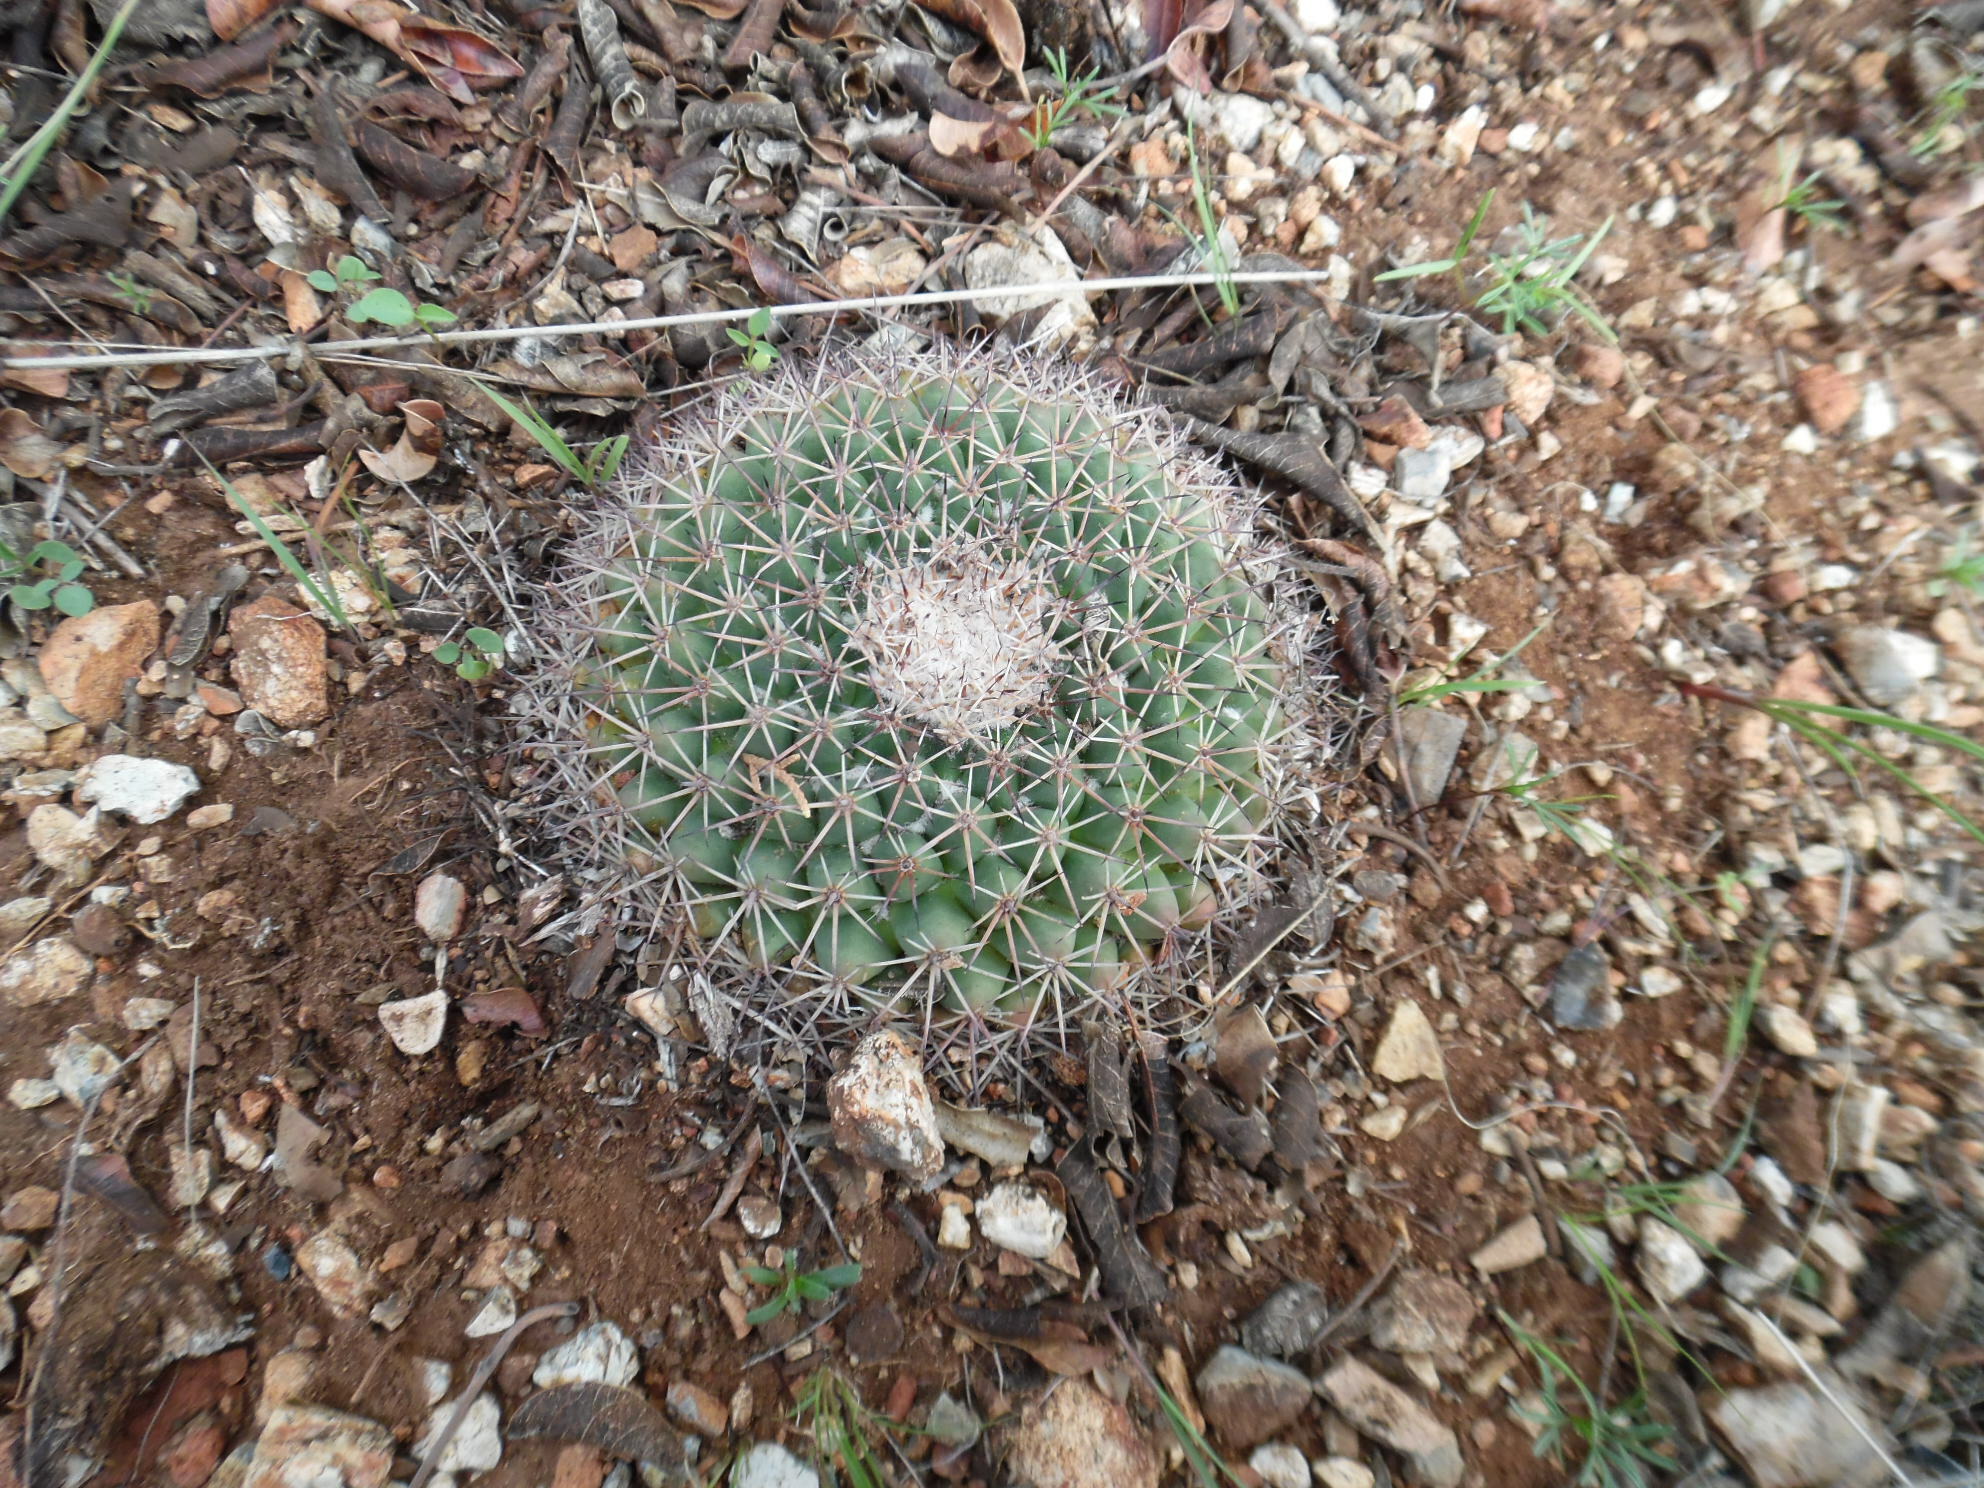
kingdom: Plantae
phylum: Tracheophyta
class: Magnoliopsida
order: Caryophyllales
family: Cactaceae
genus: Mammillaria
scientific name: Mammillaria wagneriana
